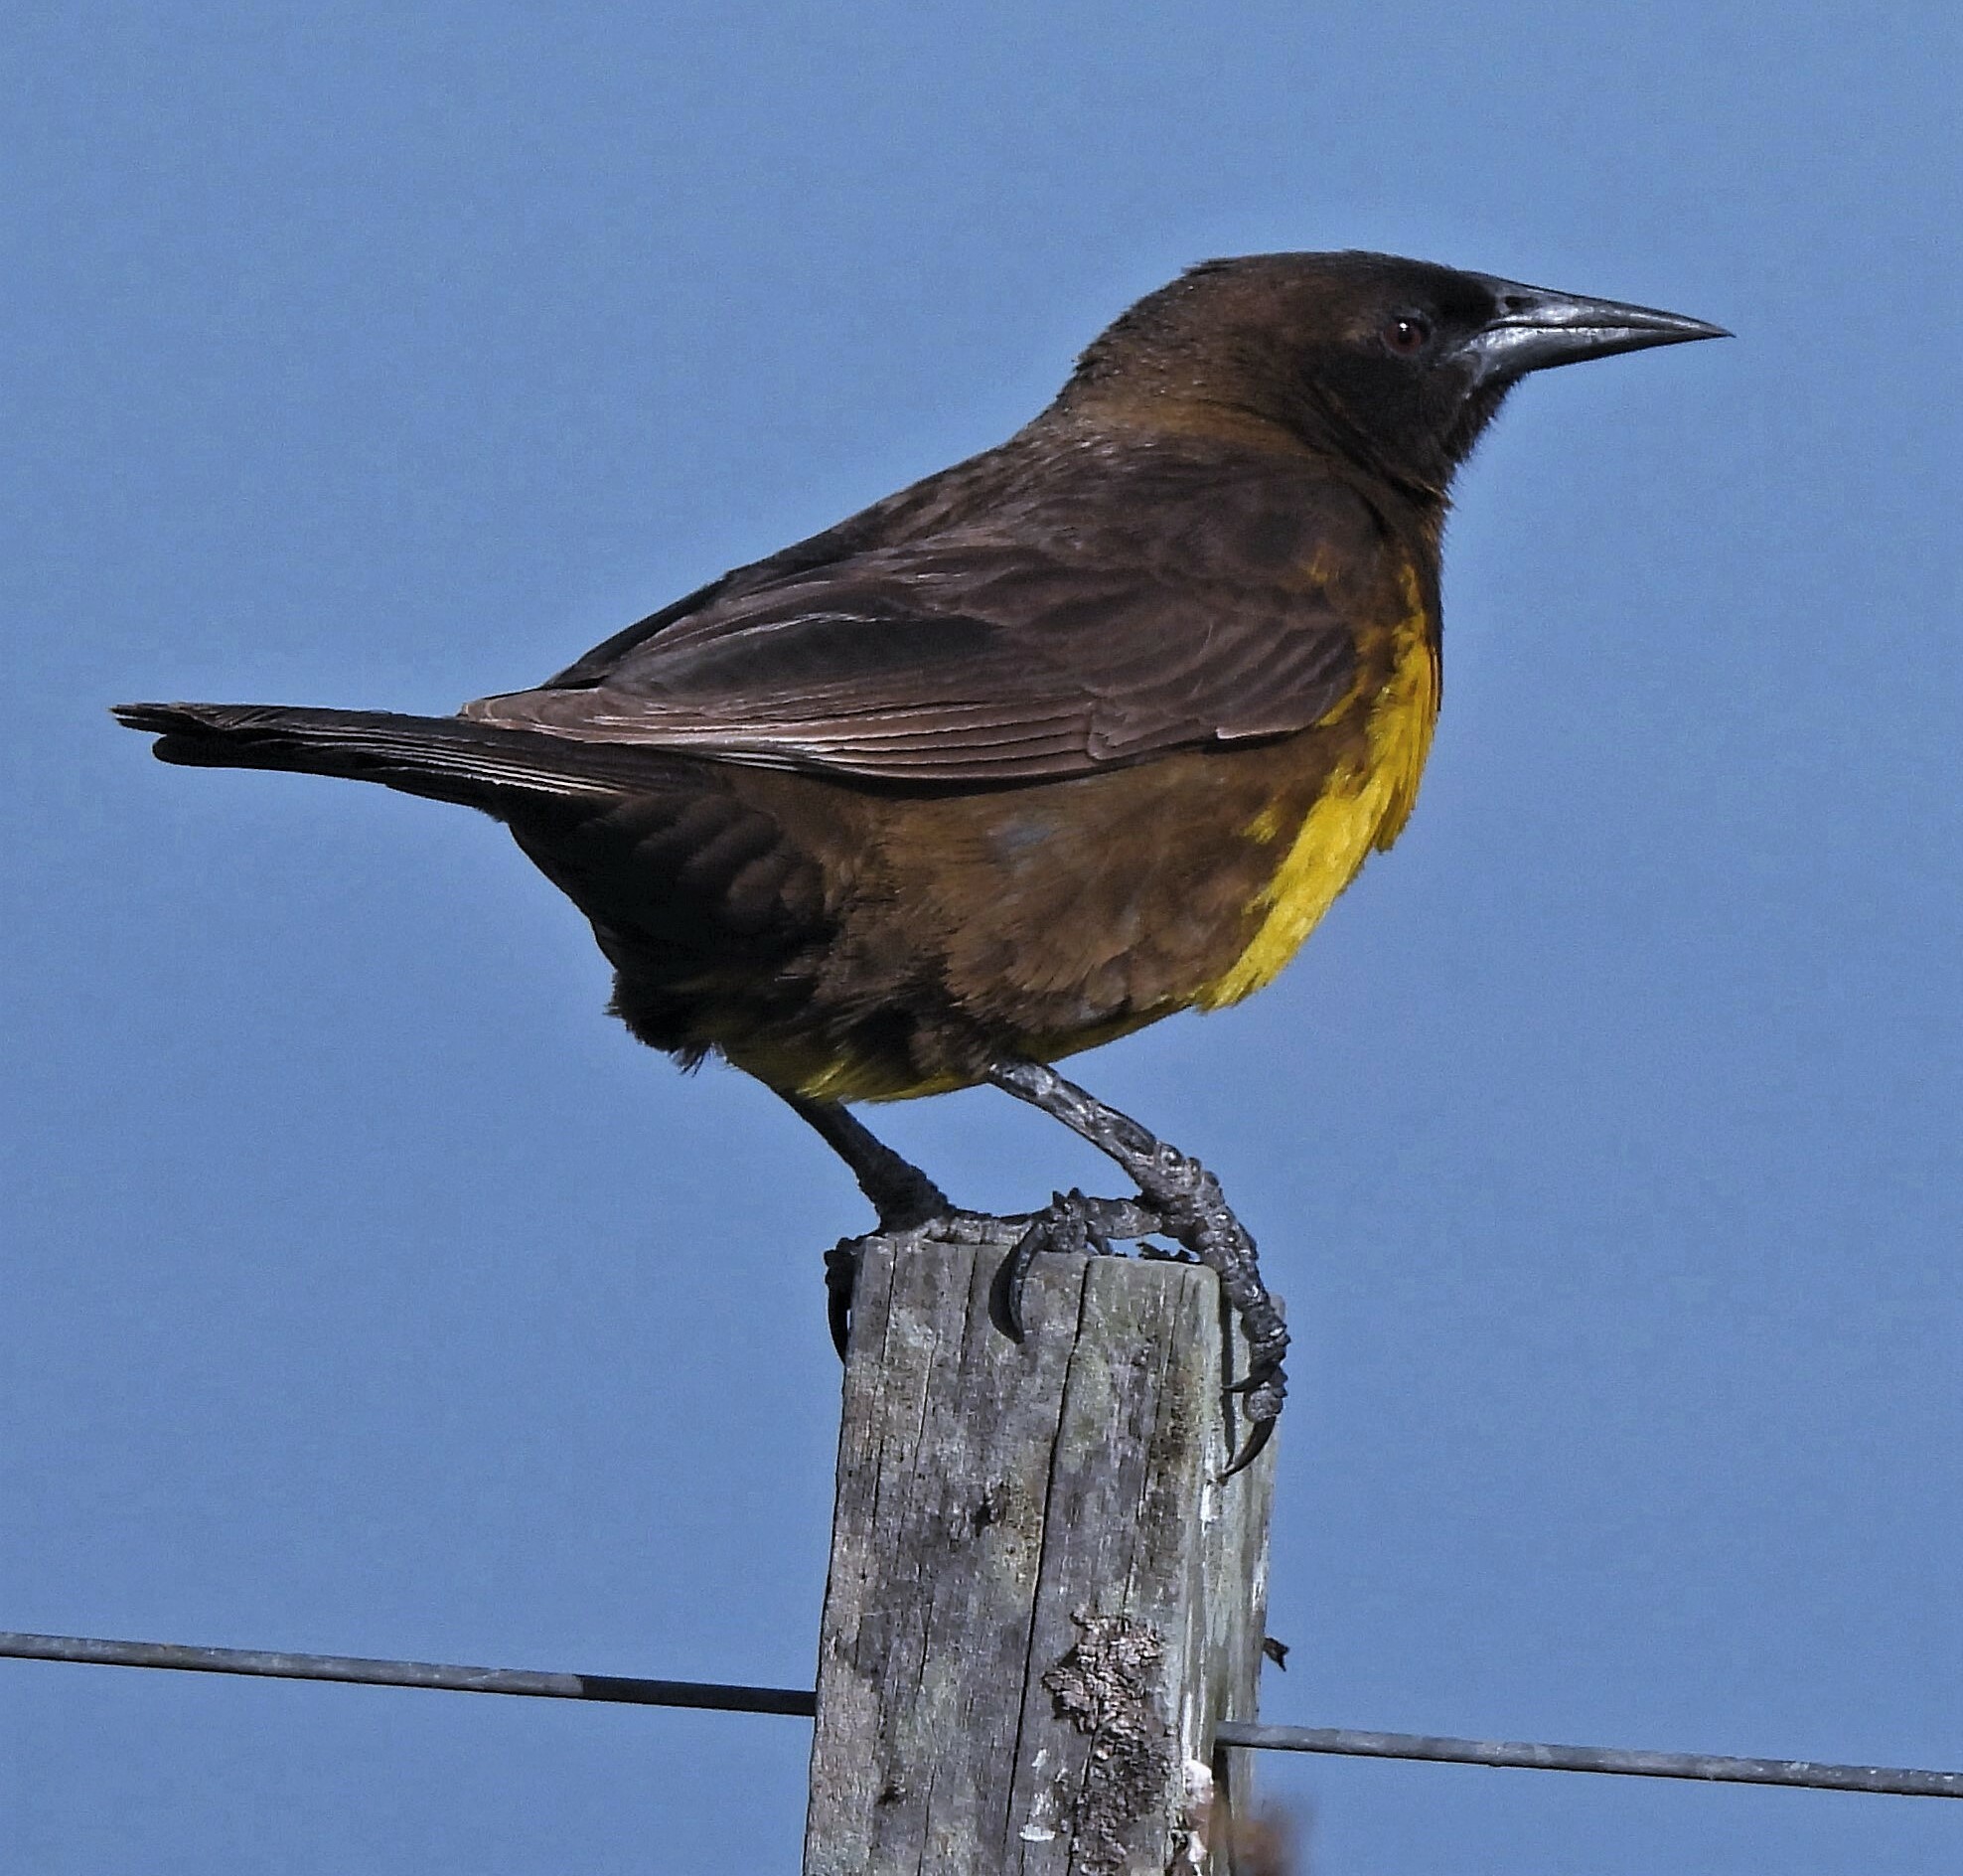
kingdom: Animalia
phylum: Chordata
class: Aves
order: Passeriformes
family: Icteridae
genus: Pseudoleistes
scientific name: Pseudoleistes virescens
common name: Brown-and-yellow marshbird
